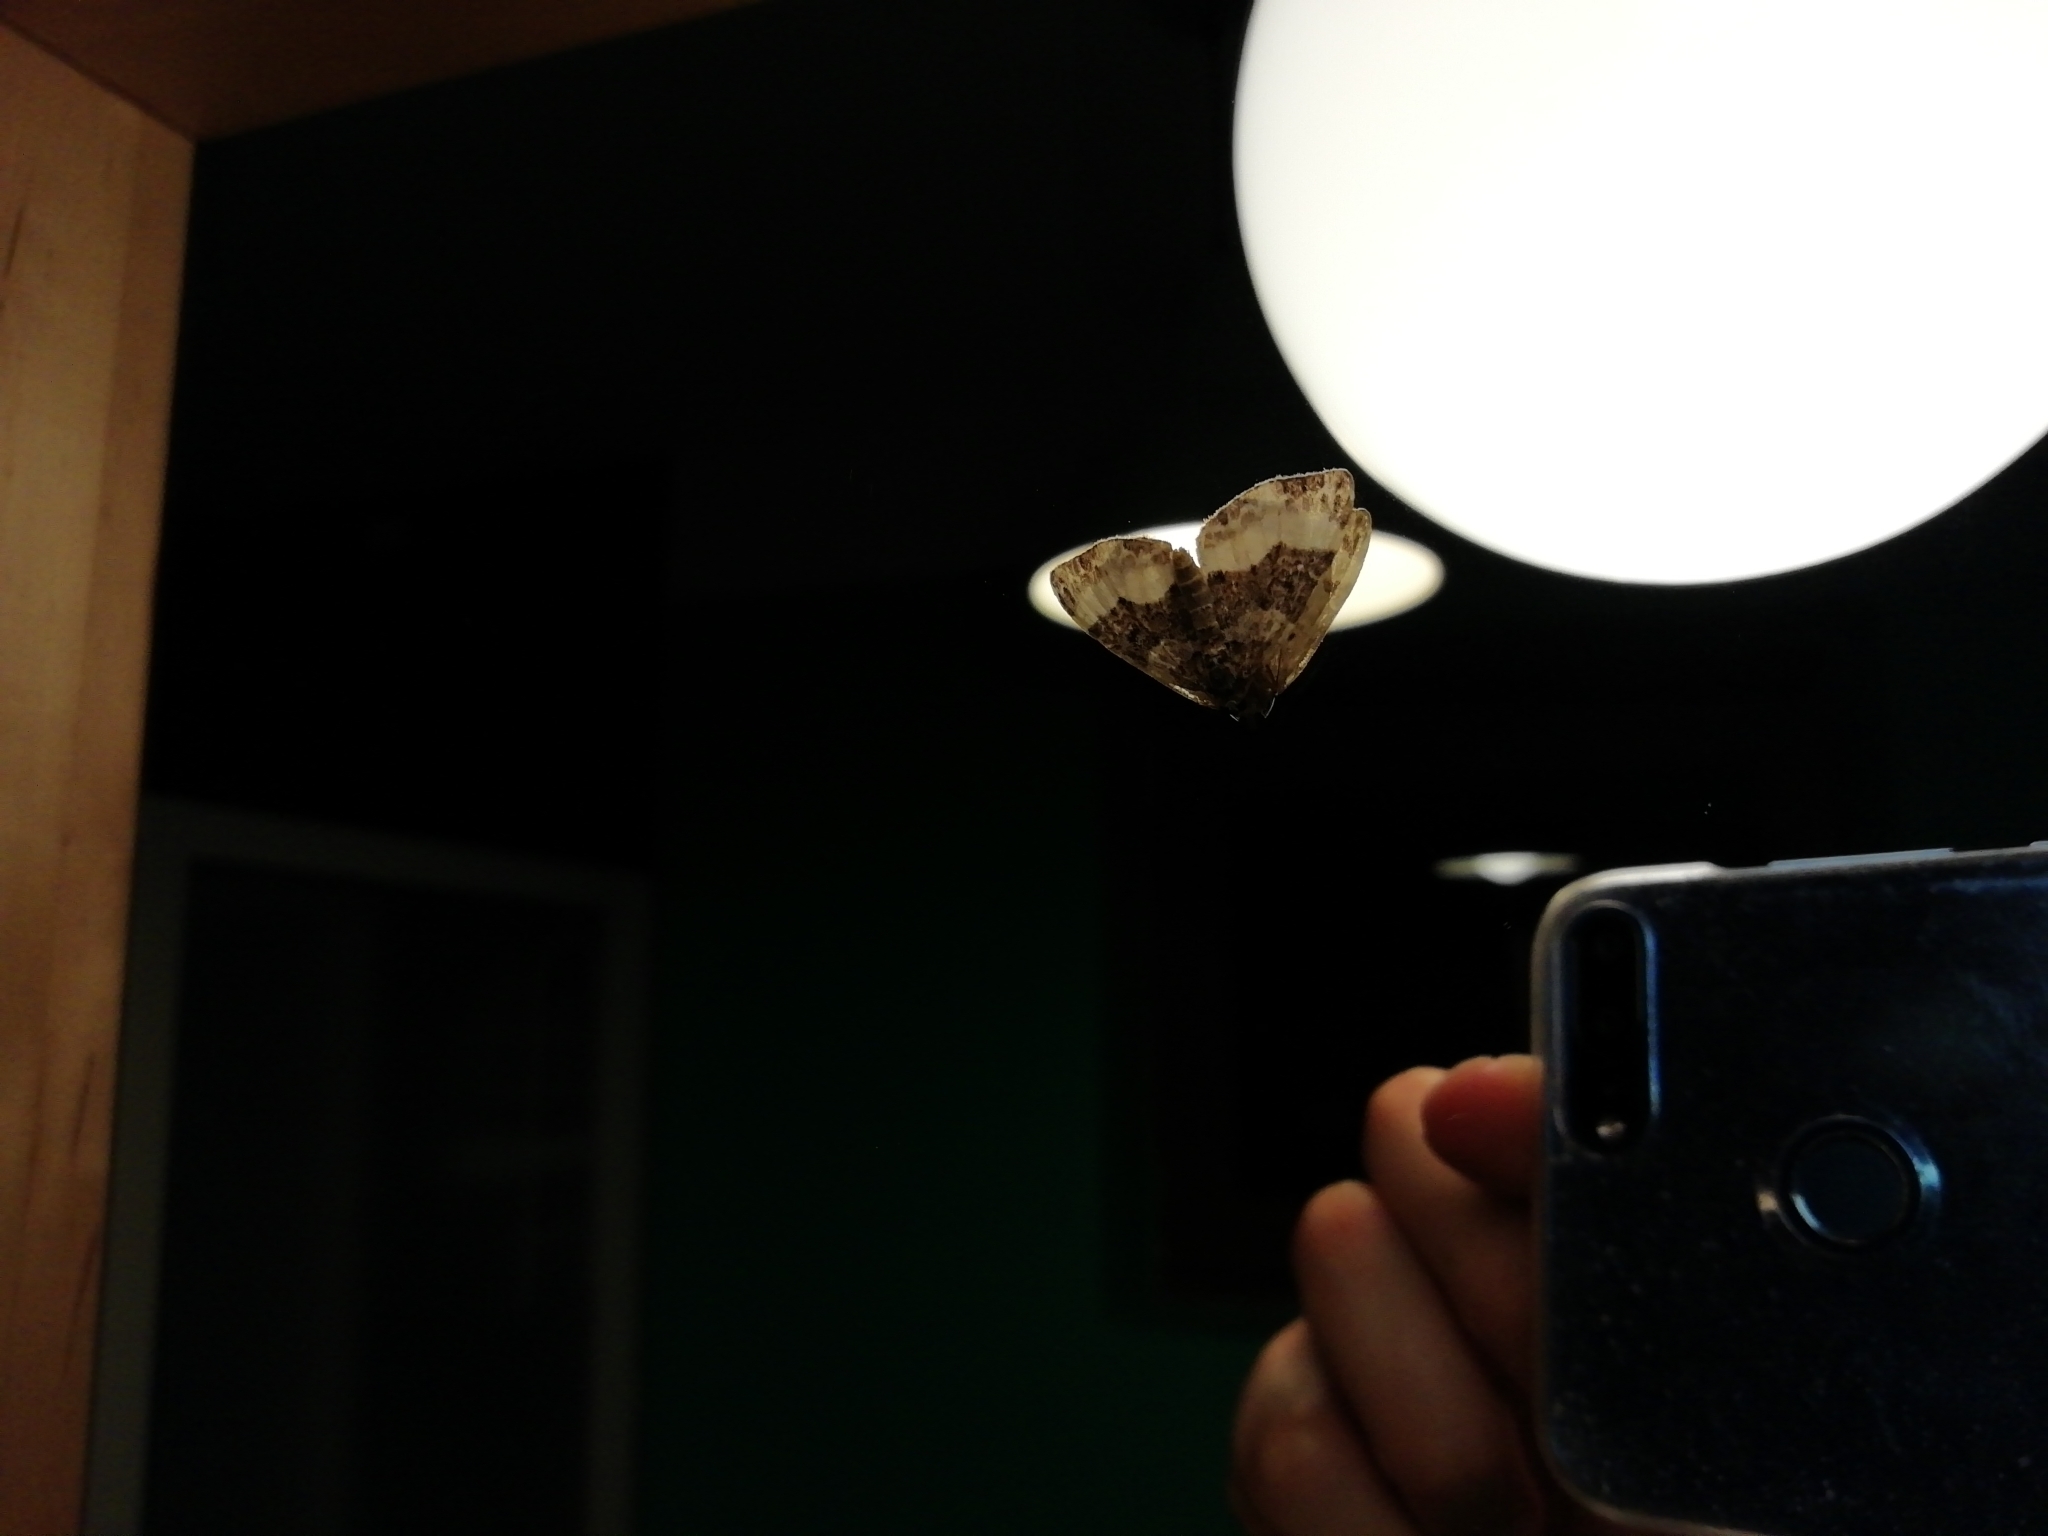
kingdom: Animalia
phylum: Arthropoda
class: Insecta
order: Lepidoptera
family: Geometridae
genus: Euphyia
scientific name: Euphyia unangulata
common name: Sharp-angled carpet
